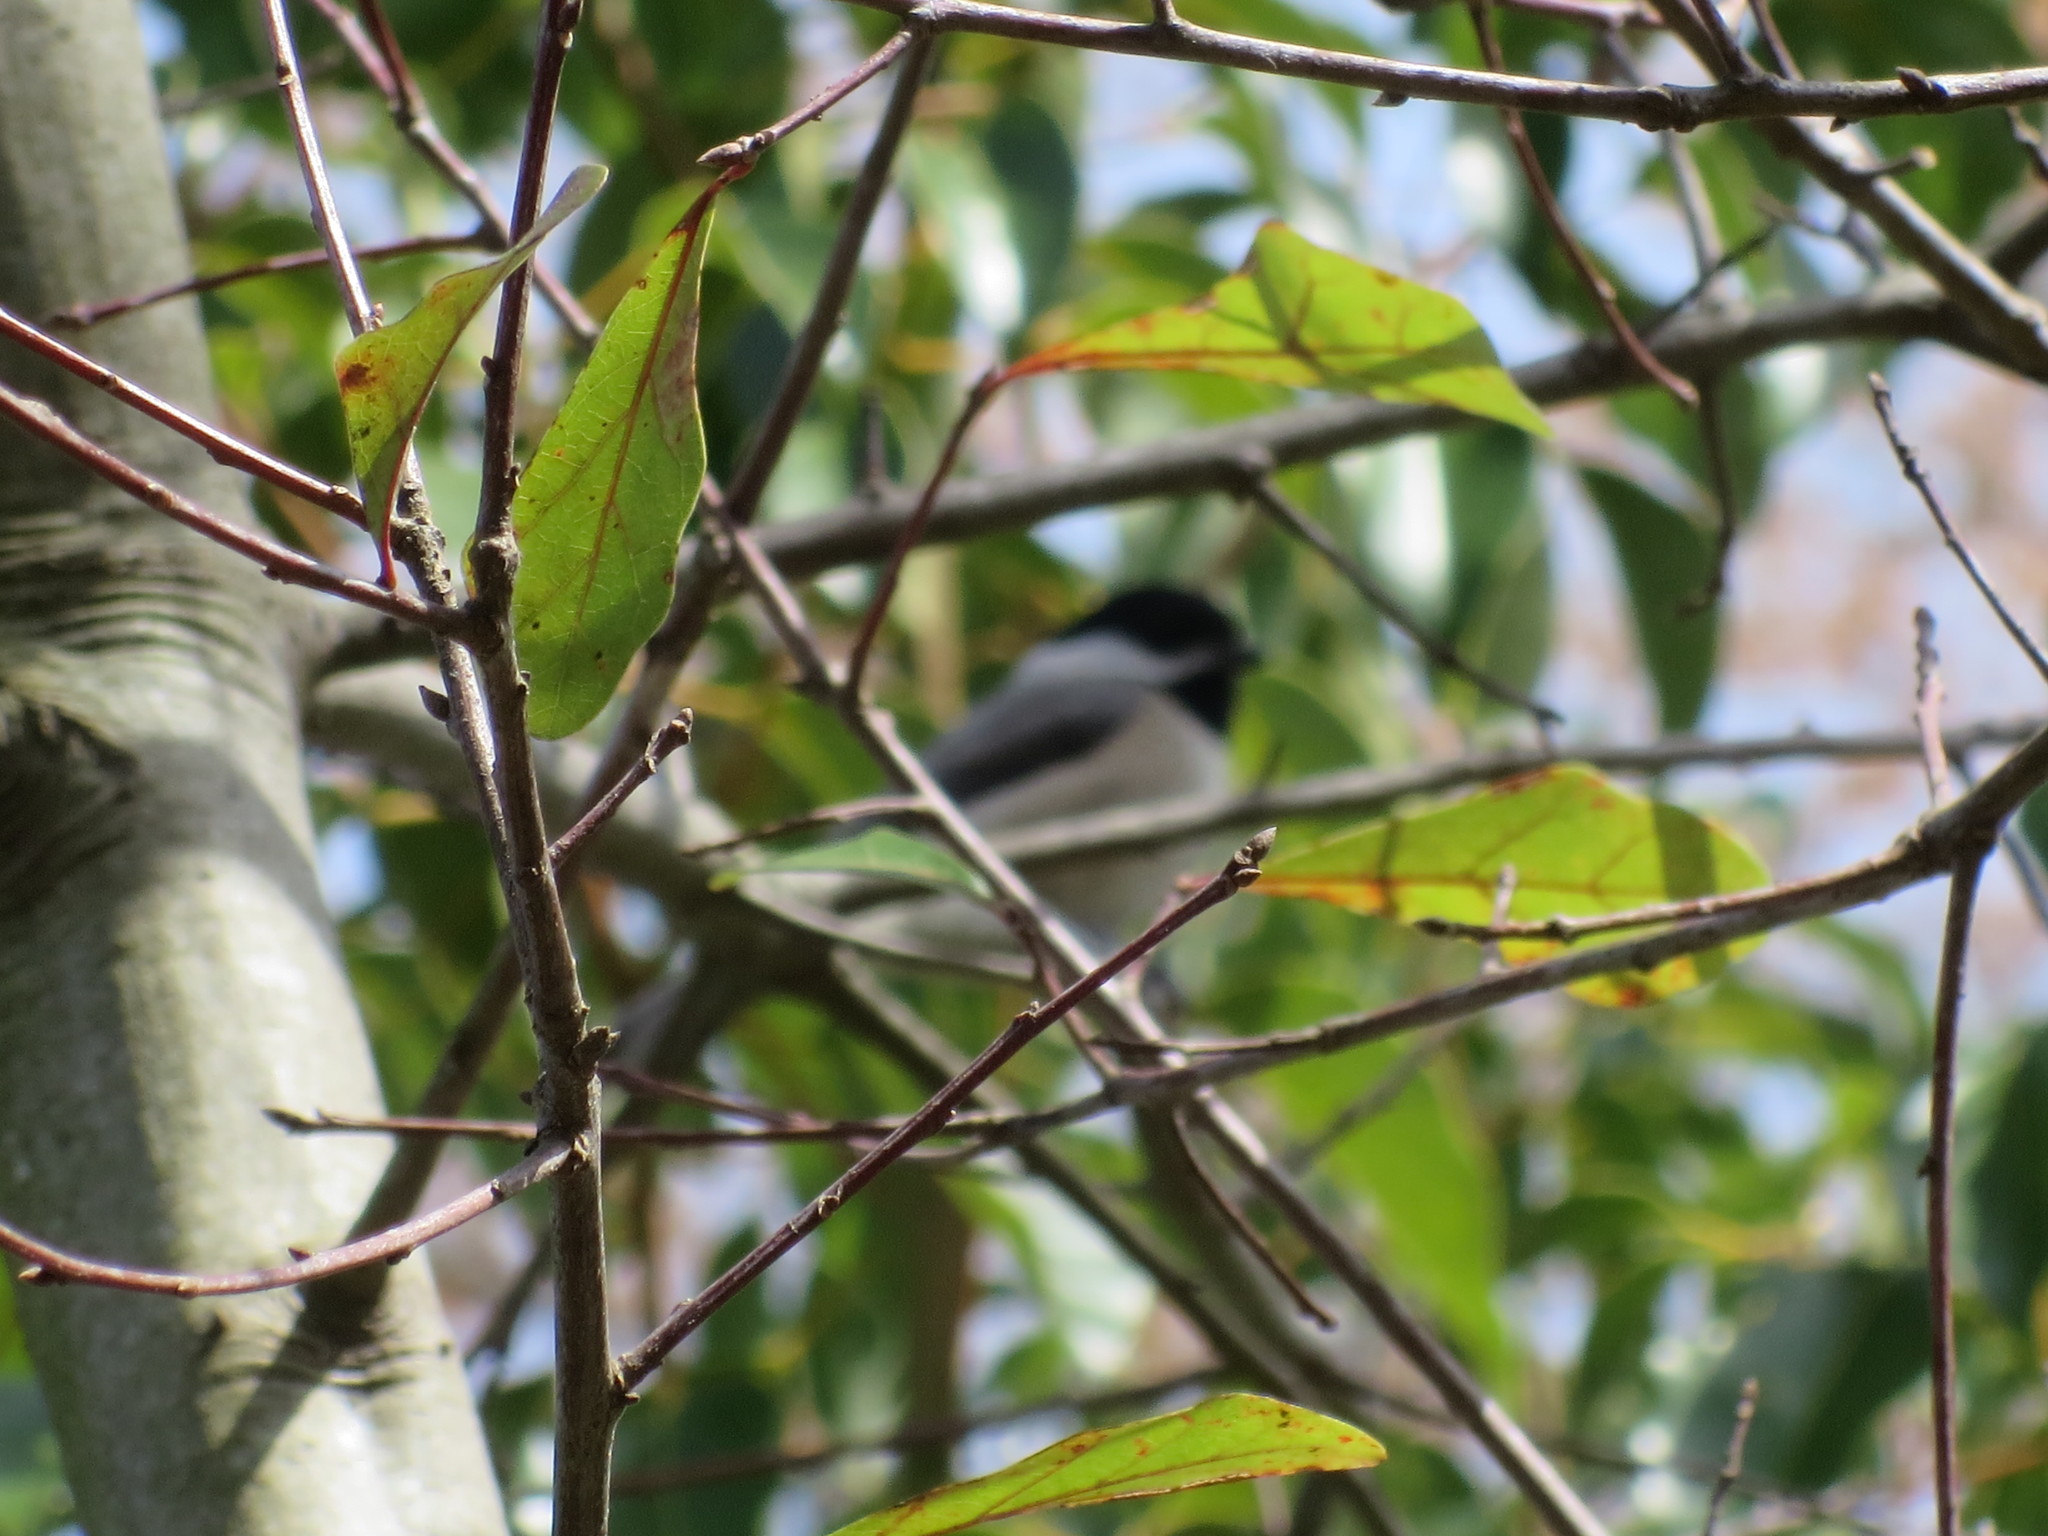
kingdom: Animalia
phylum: Chordata
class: Aves
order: Passeriformes
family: Paridae
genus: Poecile
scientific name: Poecile carolinensis
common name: Carolina chickadee
